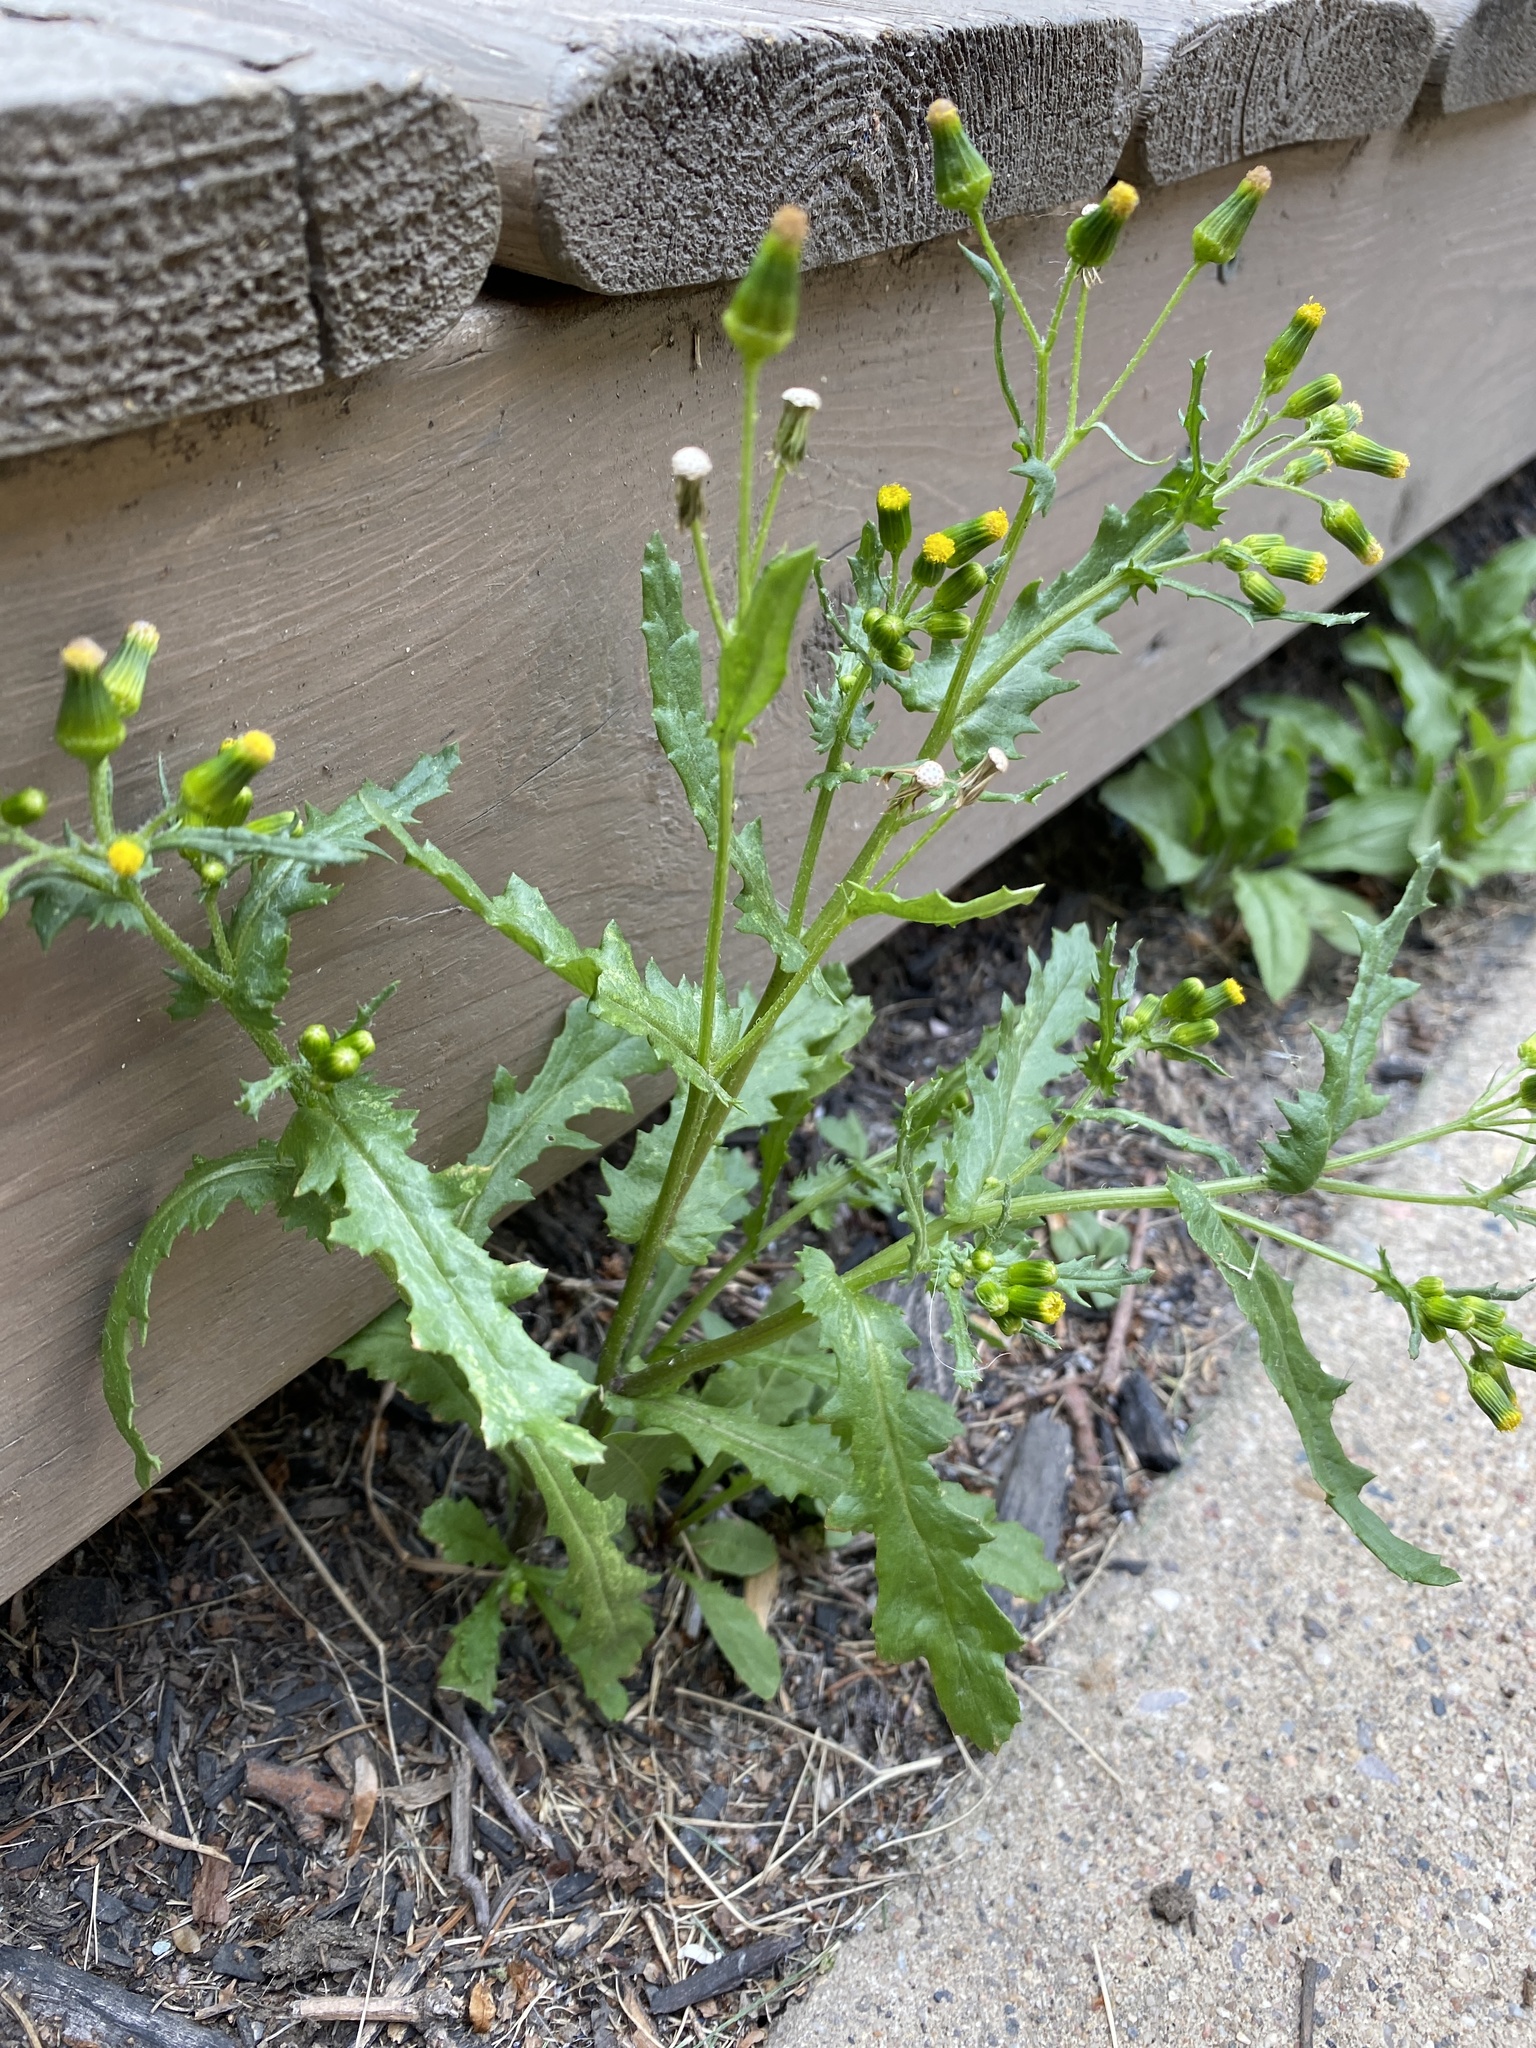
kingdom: Plantae
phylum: Tracheophyta
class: Magnoliopsida
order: Asterales
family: Asteraceae
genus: Senecio
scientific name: Senecio vulgaris
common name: Old-man-in-the-spring
